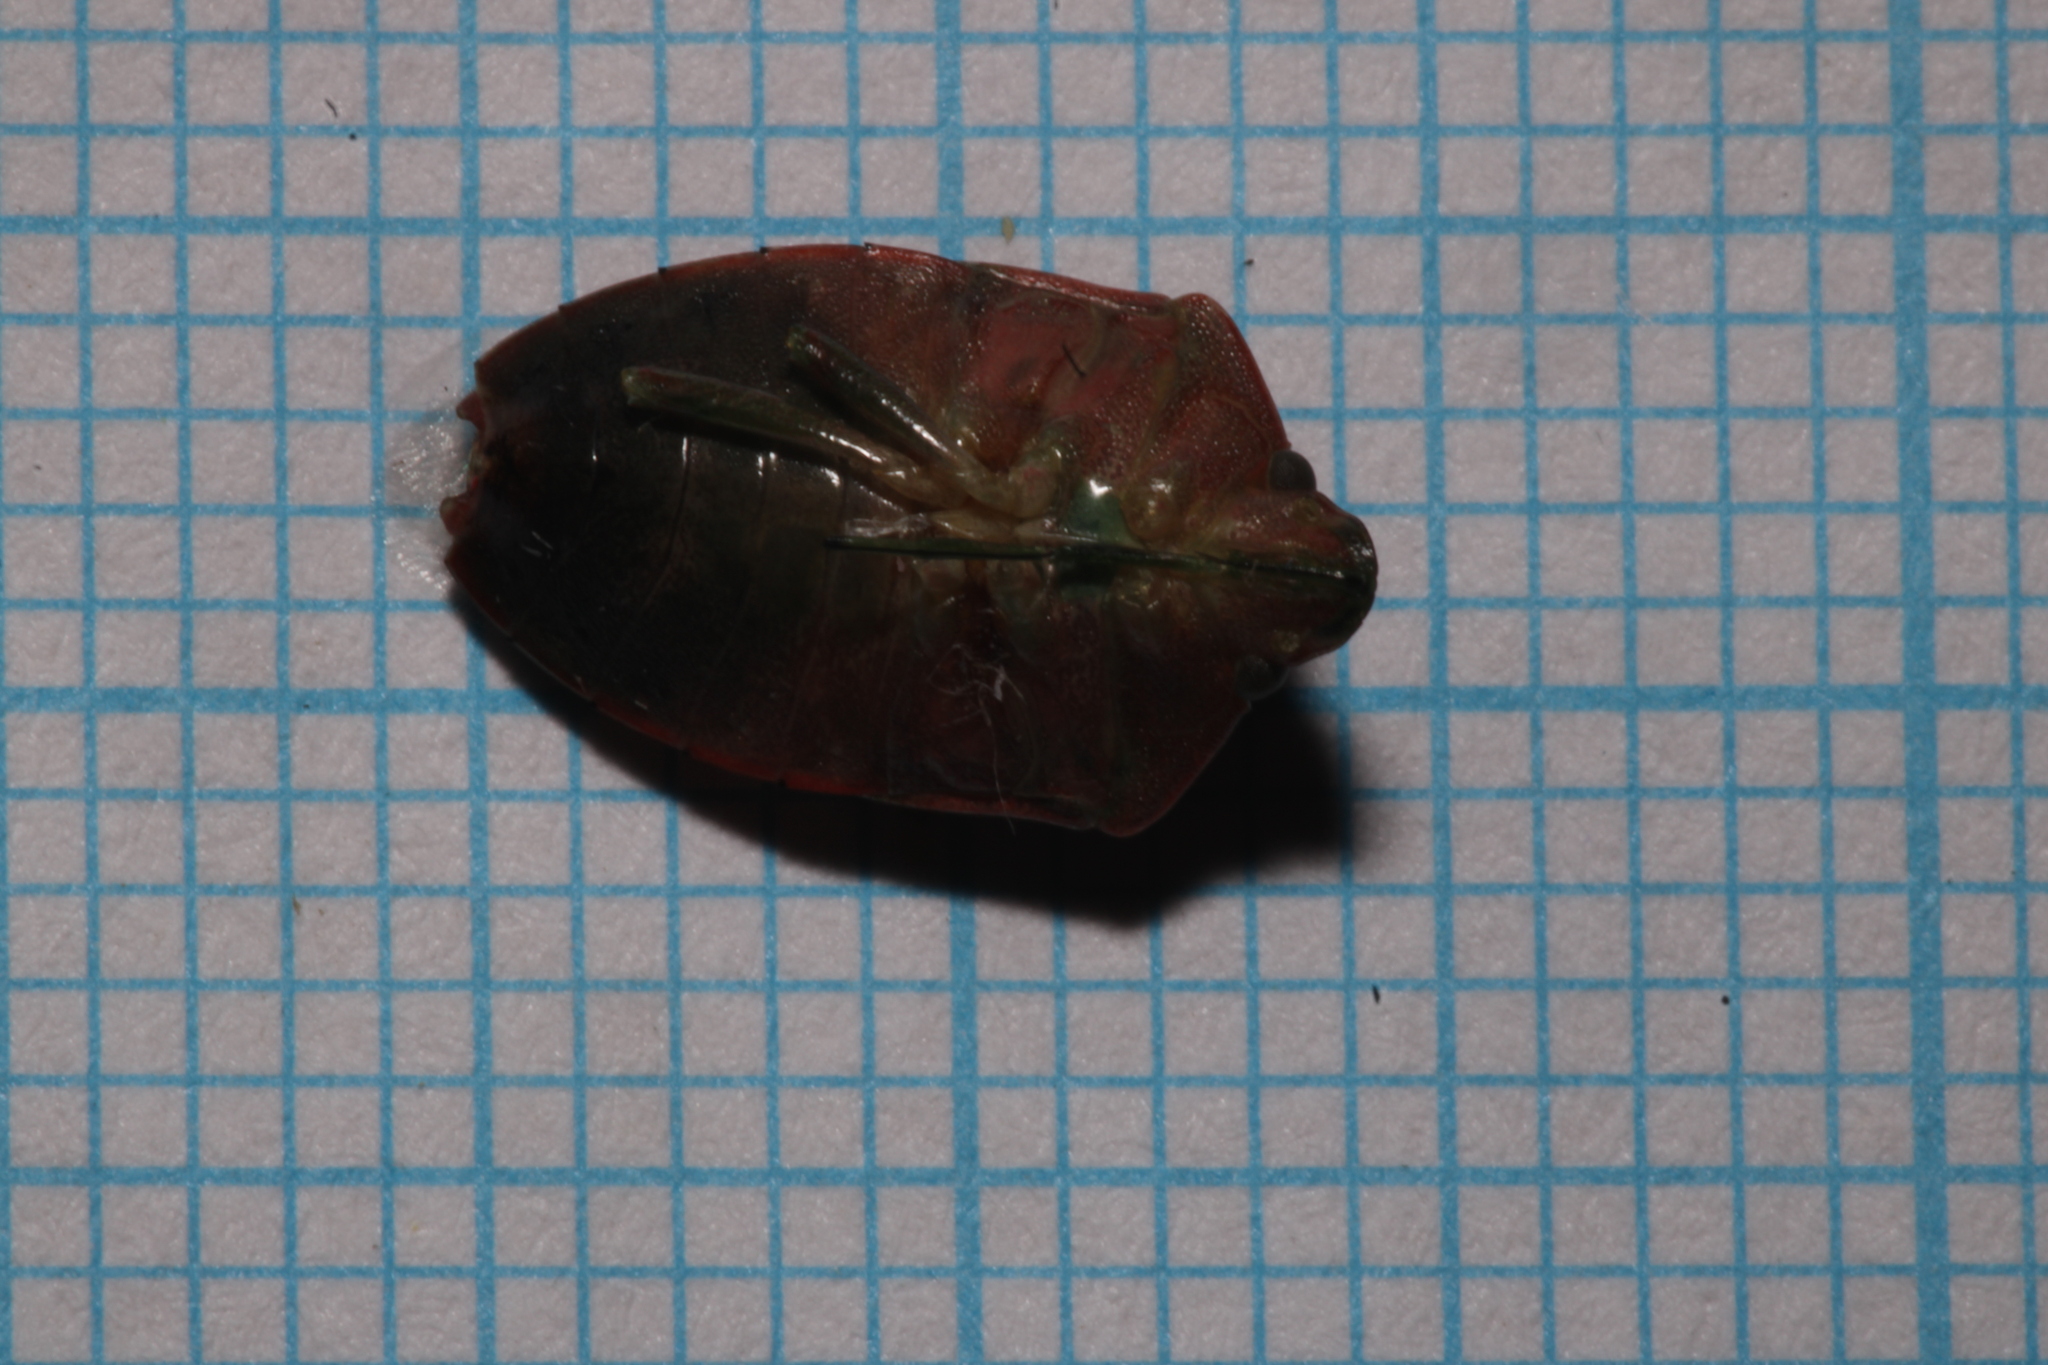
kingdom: Animalia
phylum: Arthropoda
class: Insecta
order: Hemiptera
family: Pentatomidae
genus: Piezodorus
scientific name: Piezodorus lituratus
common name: Stink bug
